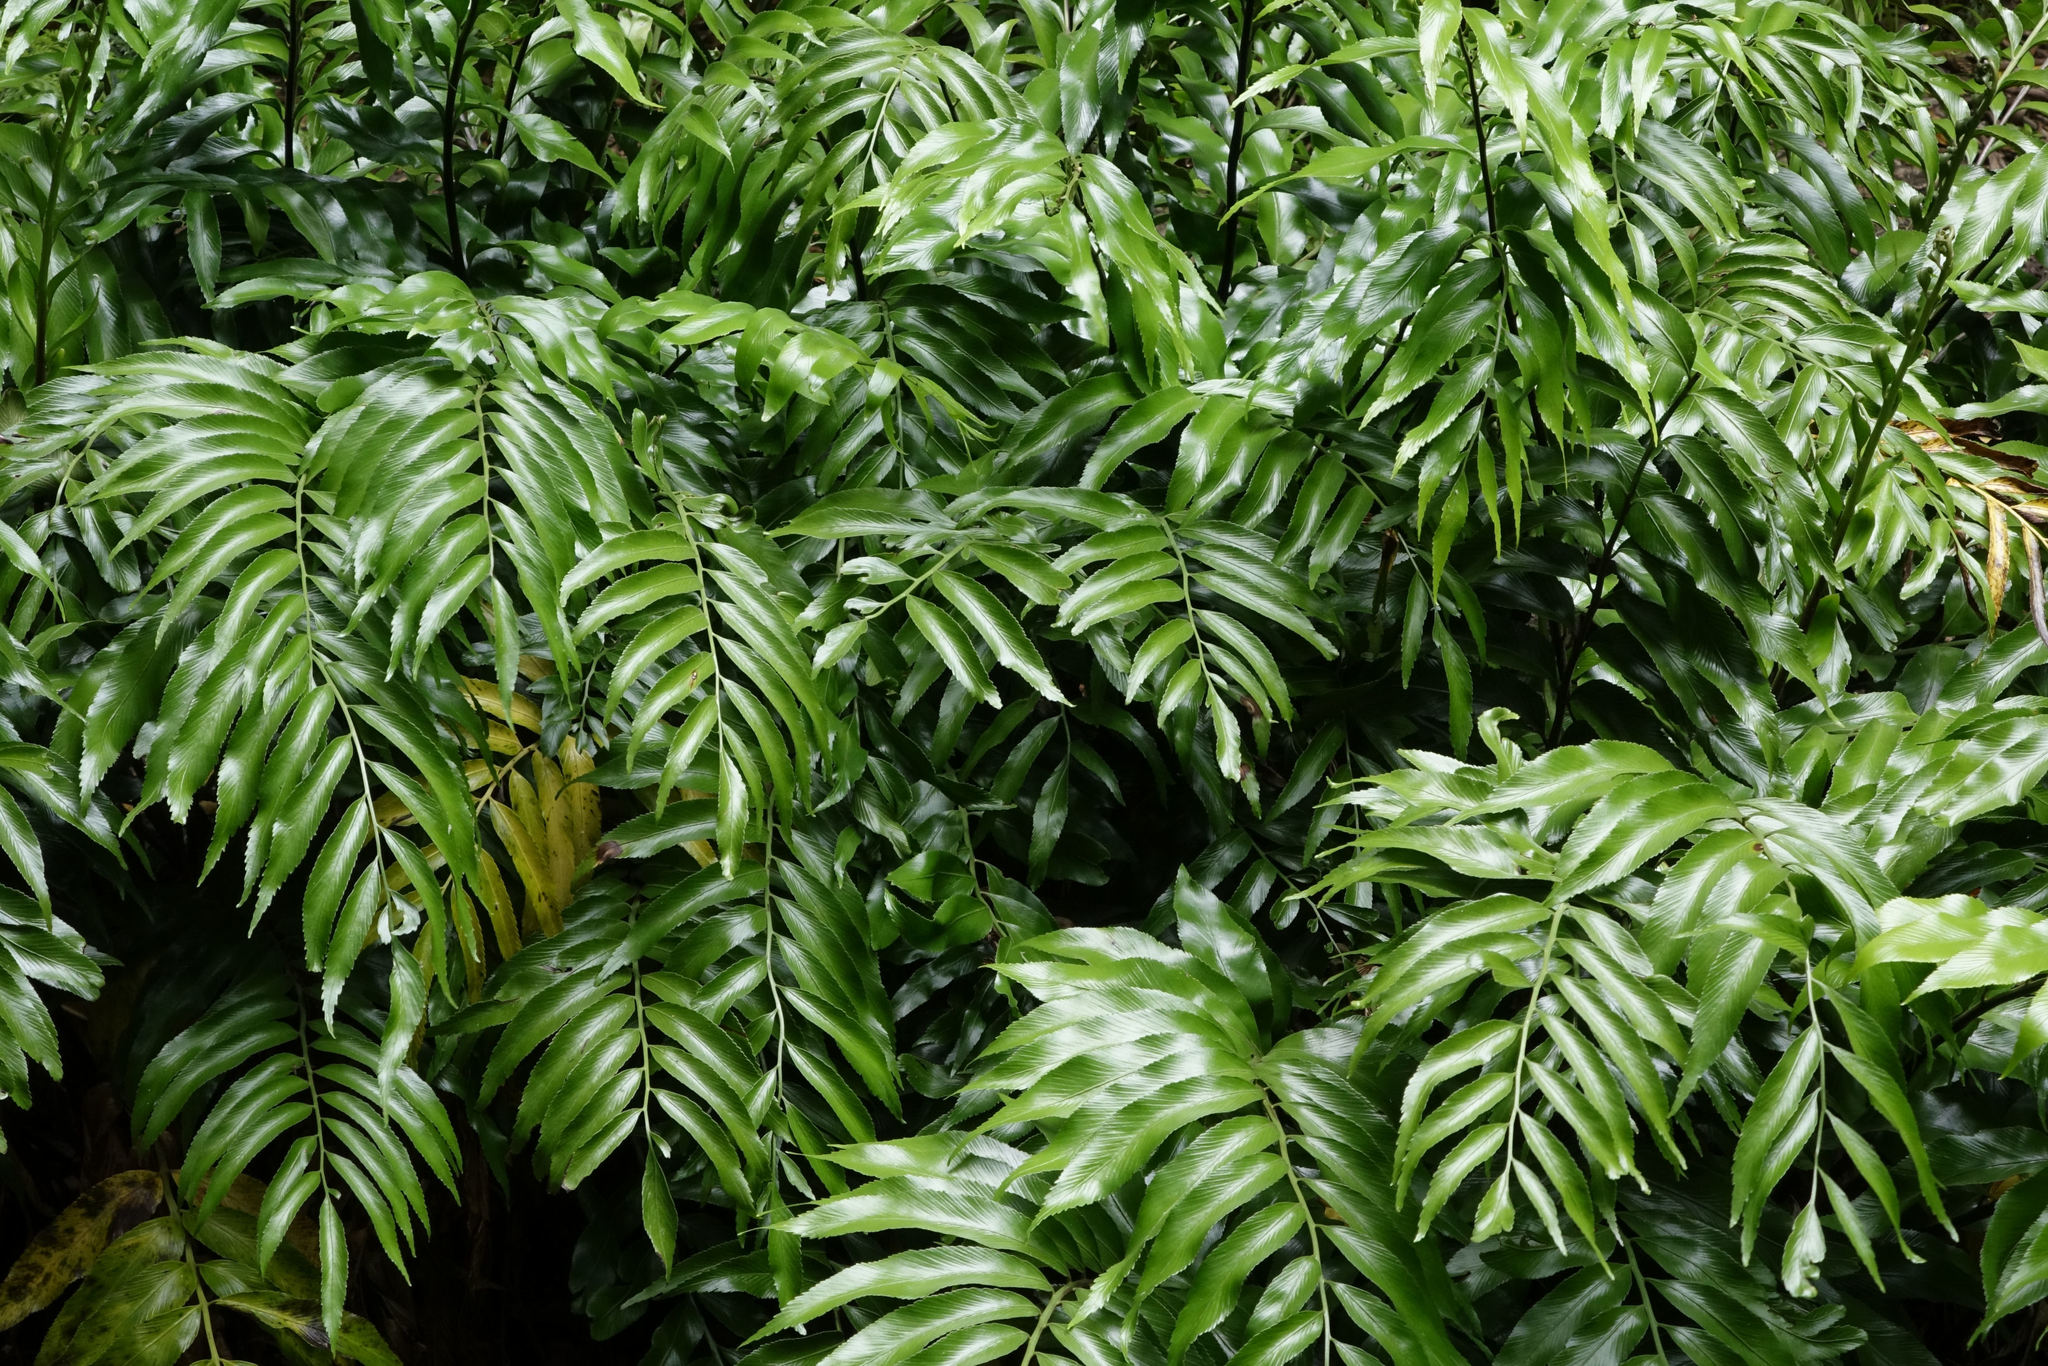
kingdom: Plantae
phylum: Tracheophyta
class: Polypodiopsida
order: Polypodiales
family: Aspleniaceae
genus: Asplenium
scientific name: Asplenium oblongifolium
